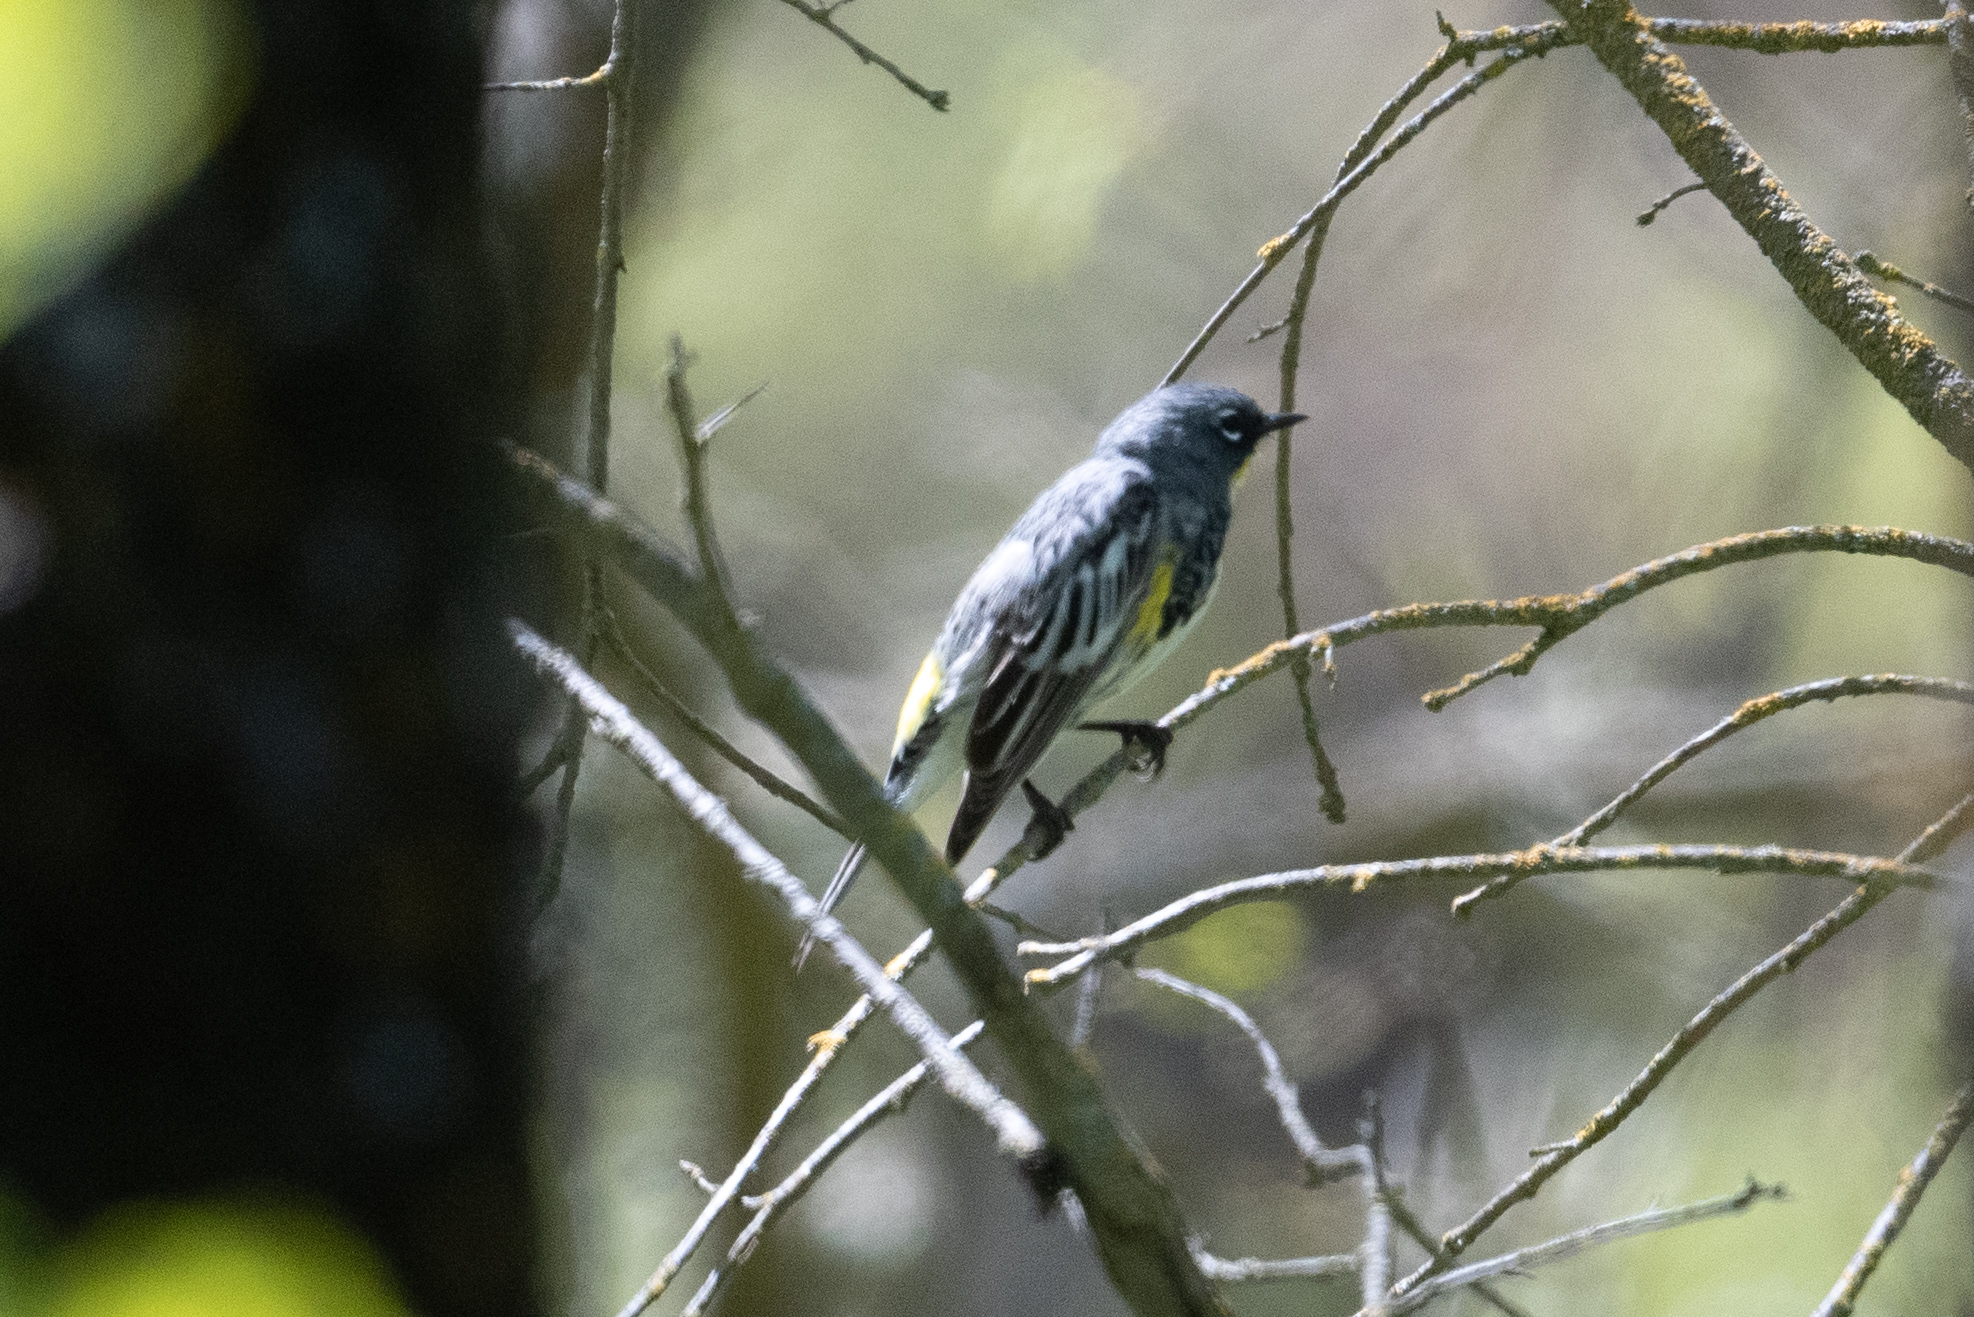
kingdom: Animalia
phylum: Chordata
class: Aves
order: Passeriformes
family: Parulidae
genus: Setophaga
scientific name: Setophaga coronata
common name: Myrtle warbler
